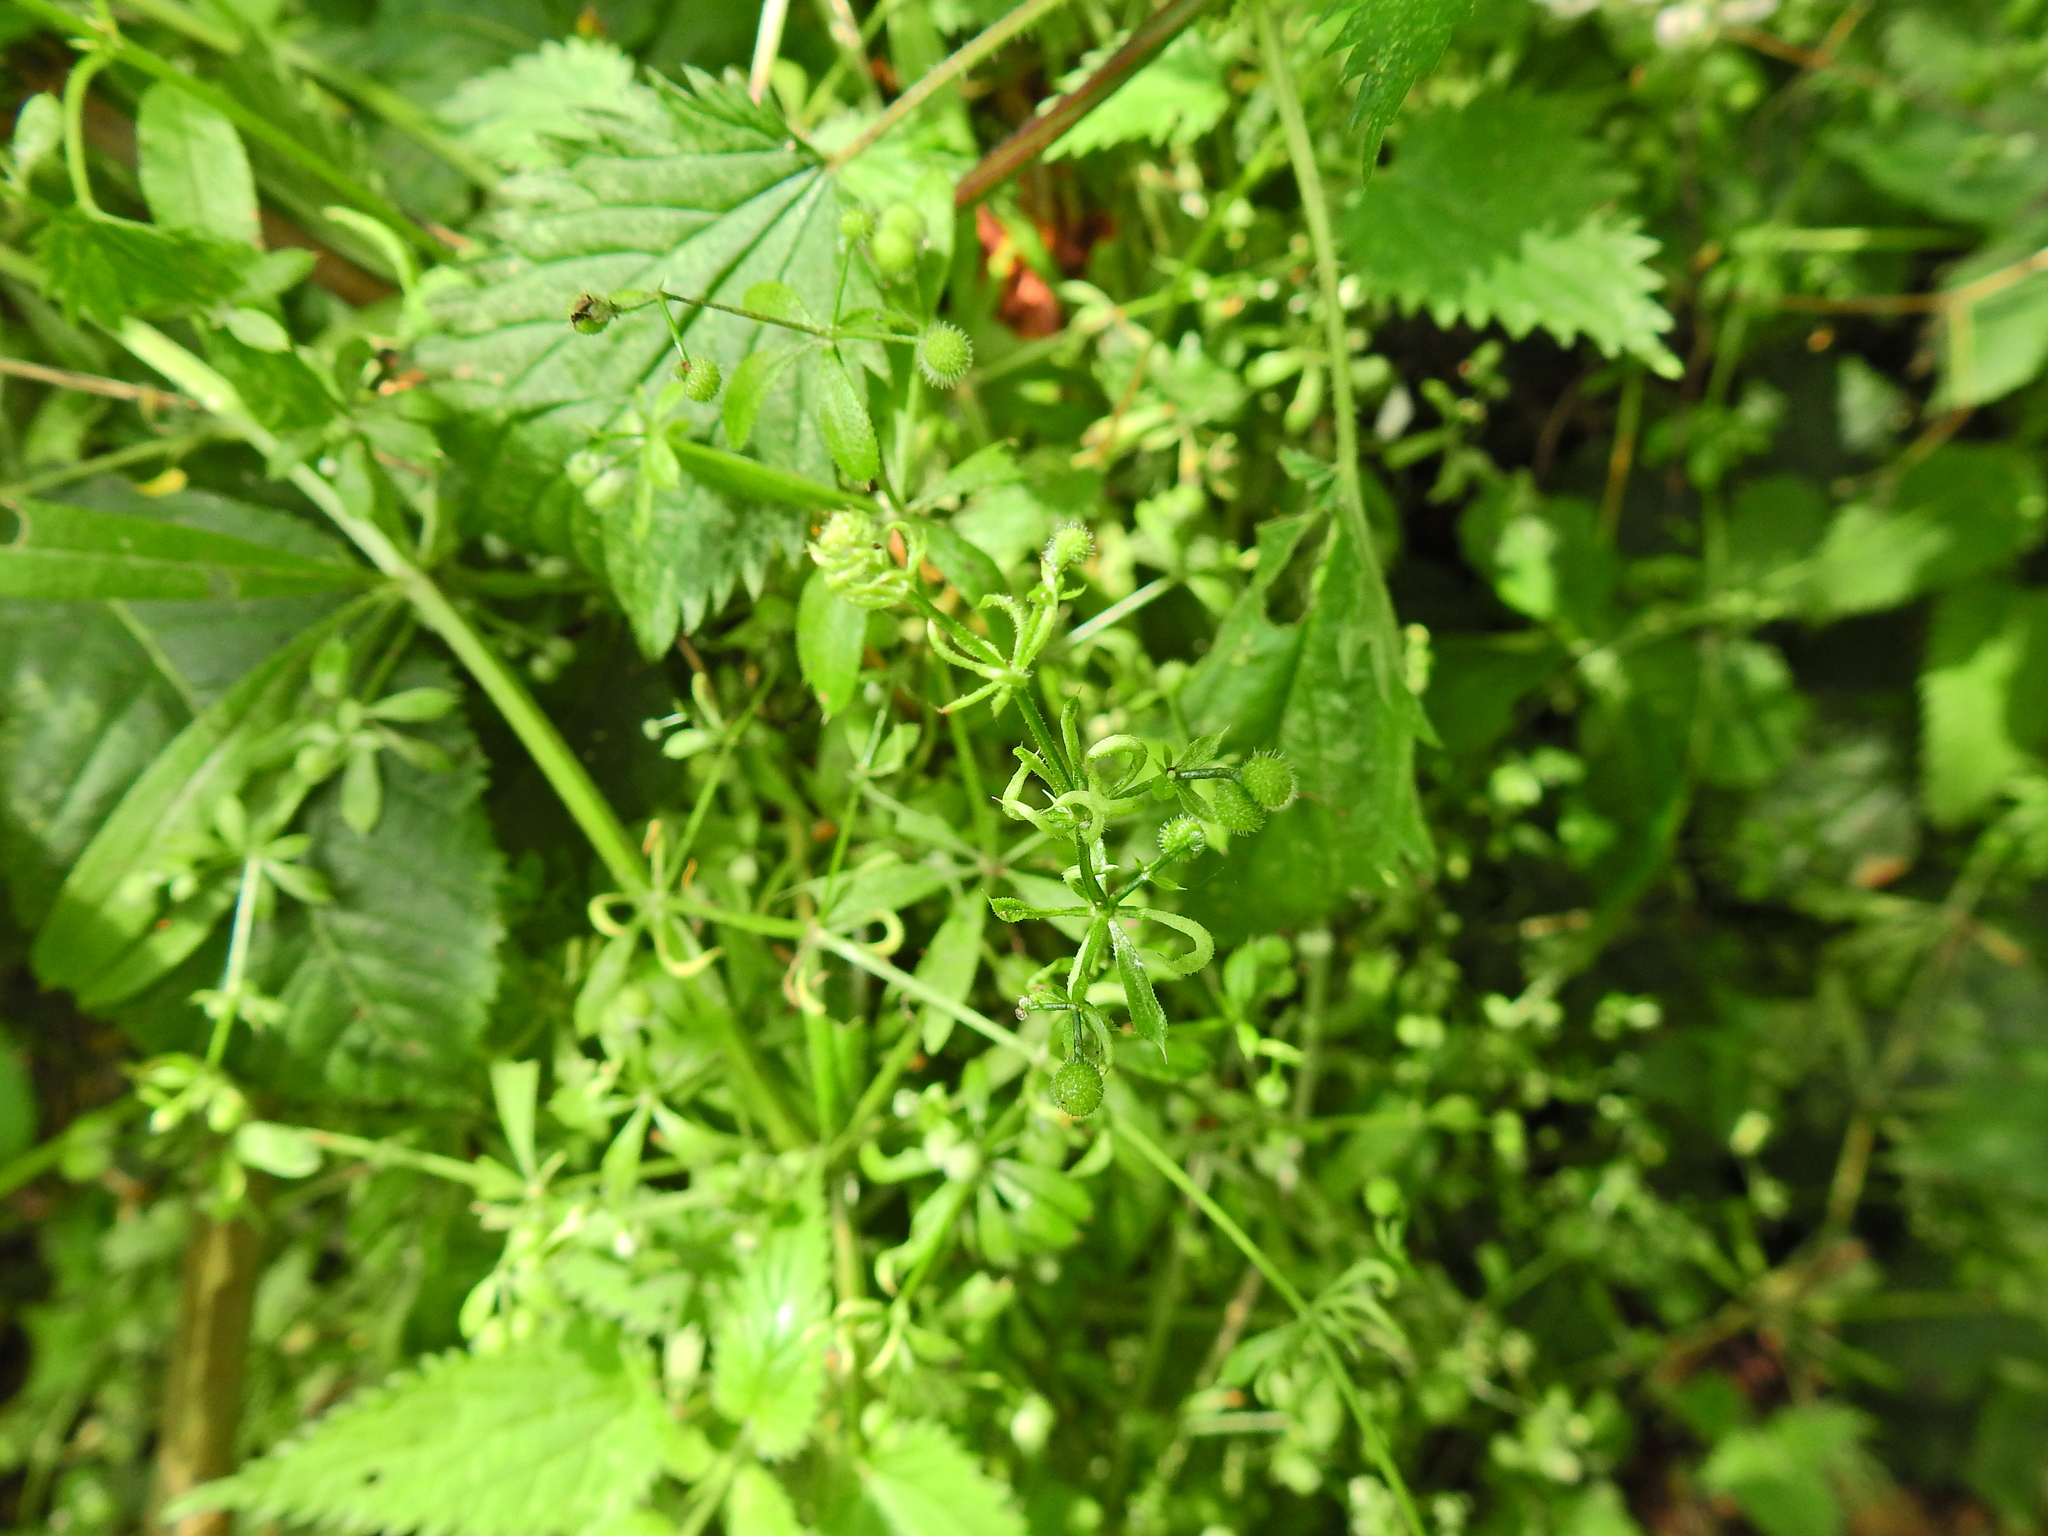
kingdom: Animalia
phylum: Arthropoda
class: Arachnida
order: Trombidiformes
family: Eriophyidae
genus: Cecidophyes
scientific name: Cecidophyes rouhollahi
